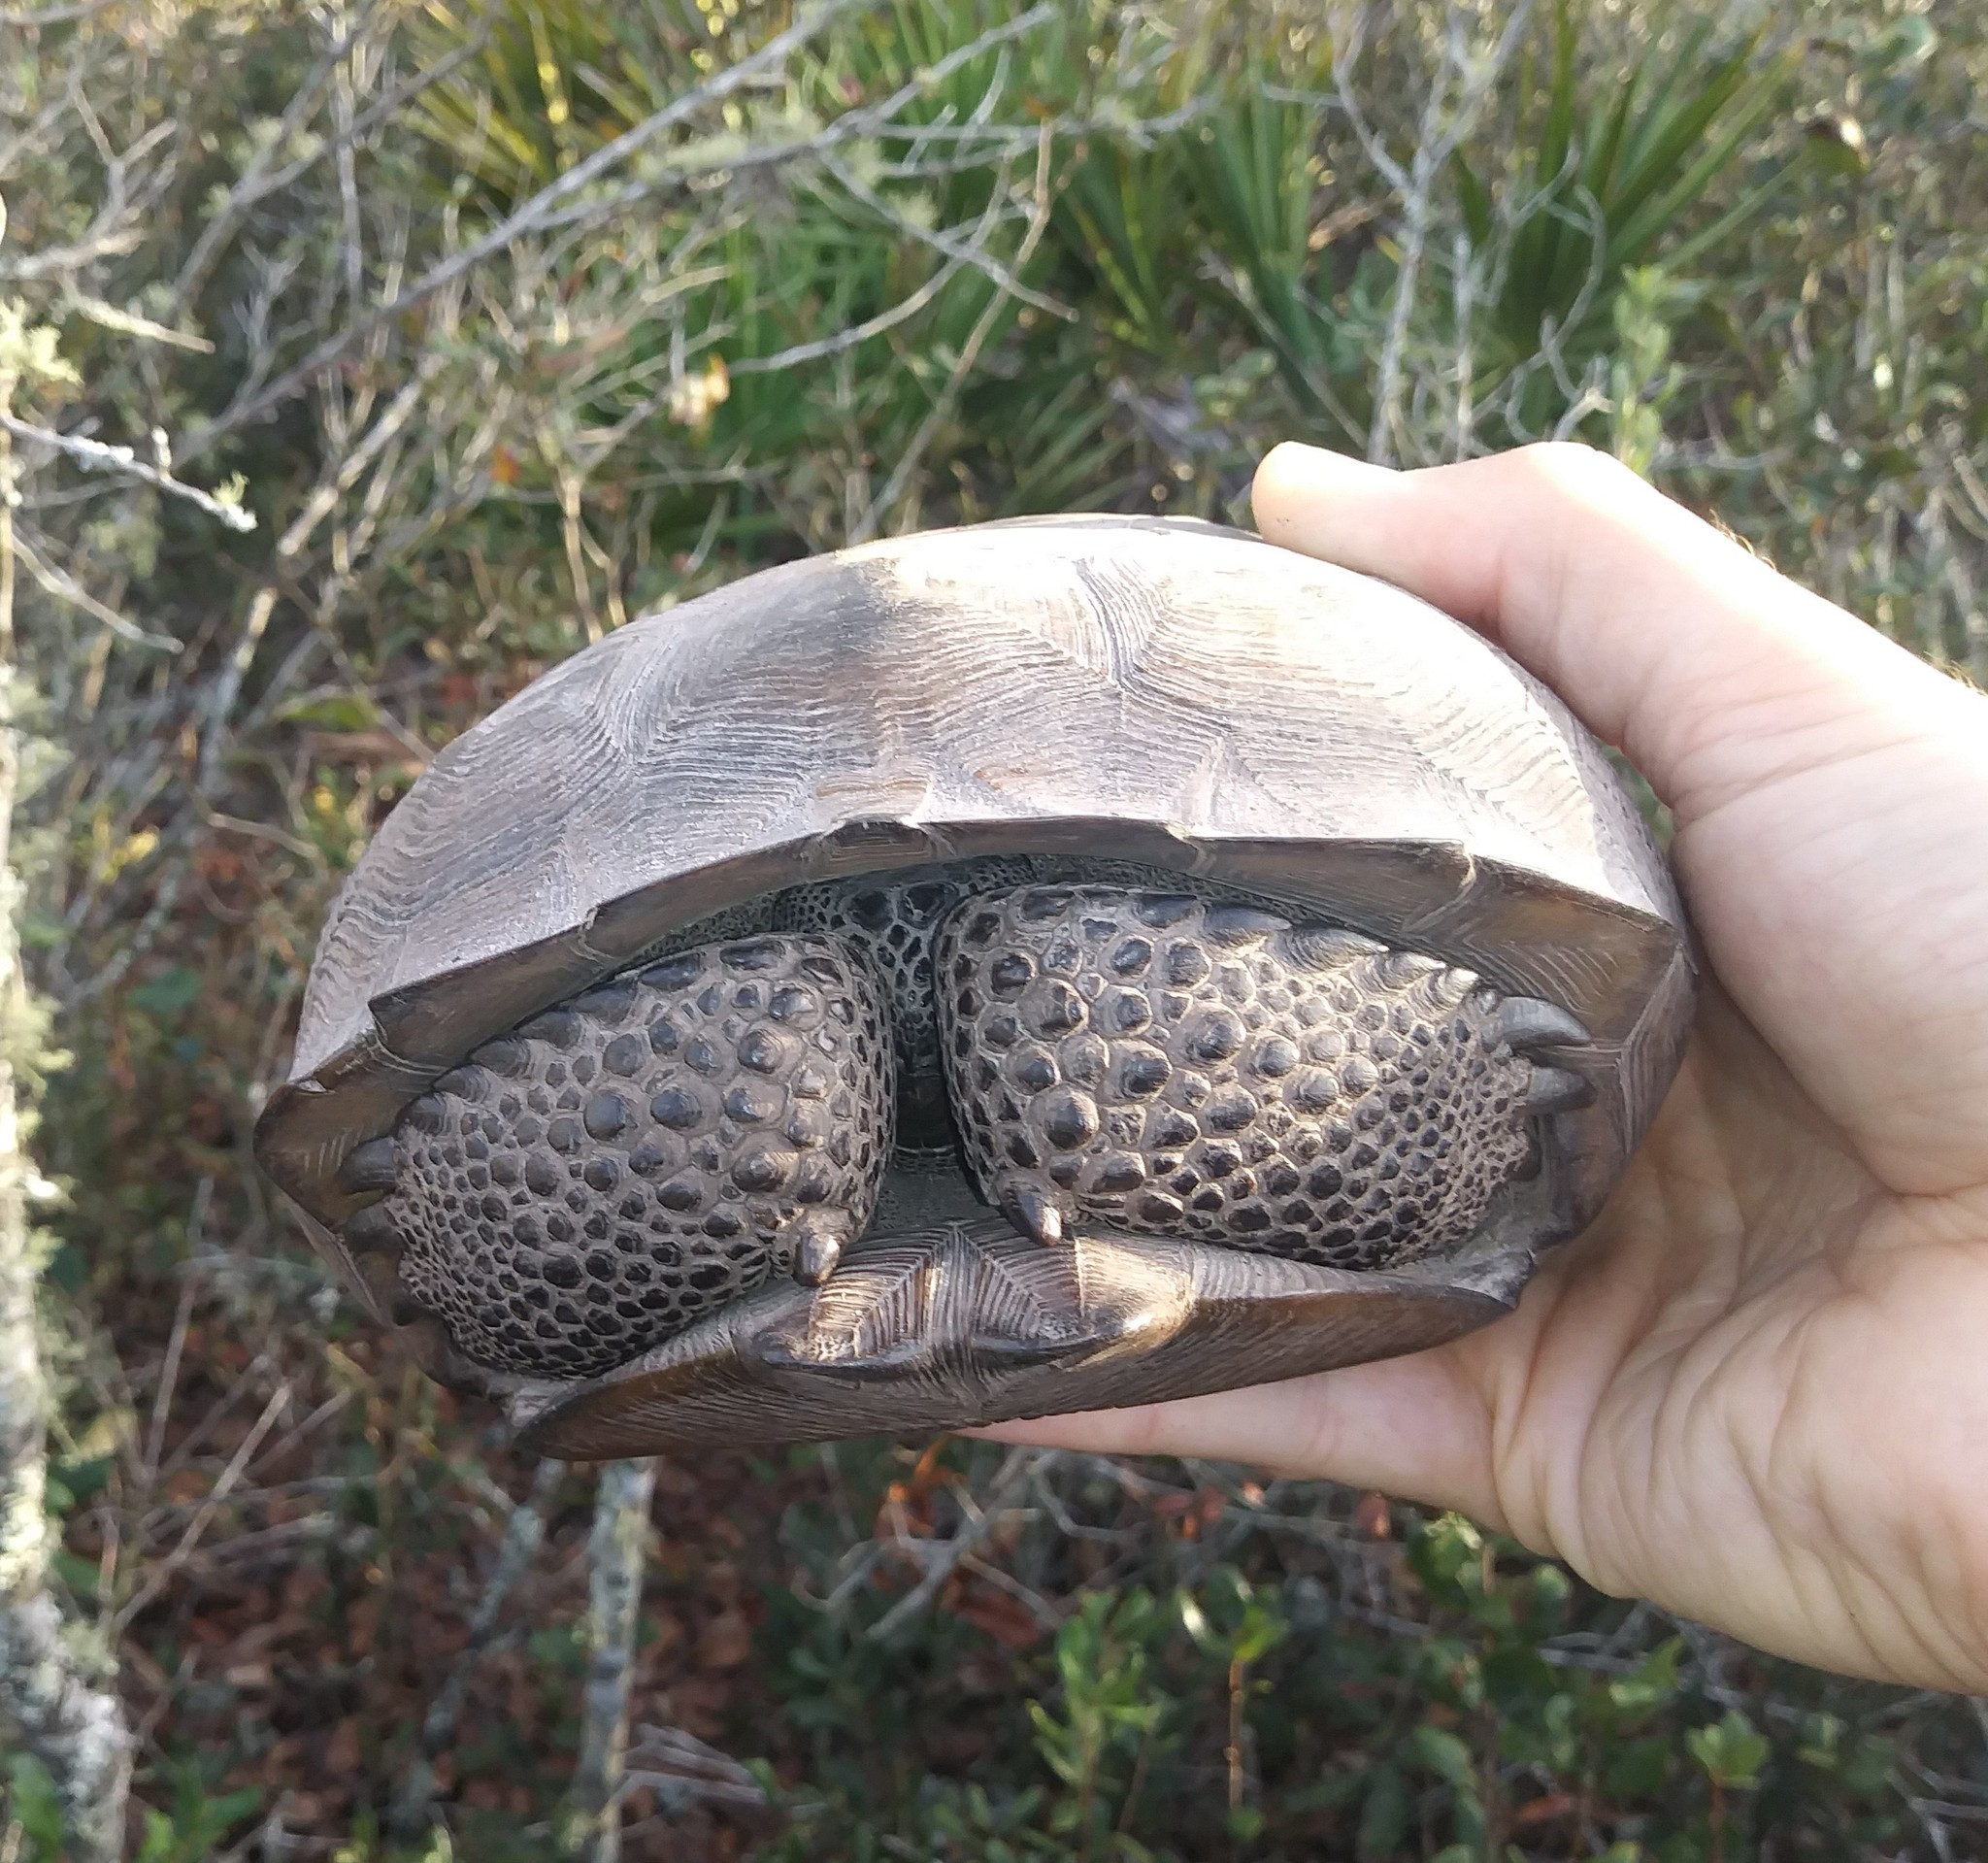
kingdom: Animalia
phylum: Chordata
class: Testudines
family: Testudinidae
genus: Gopherus
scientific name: Gopherus polyphemus
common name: Florida gopher tortoise
